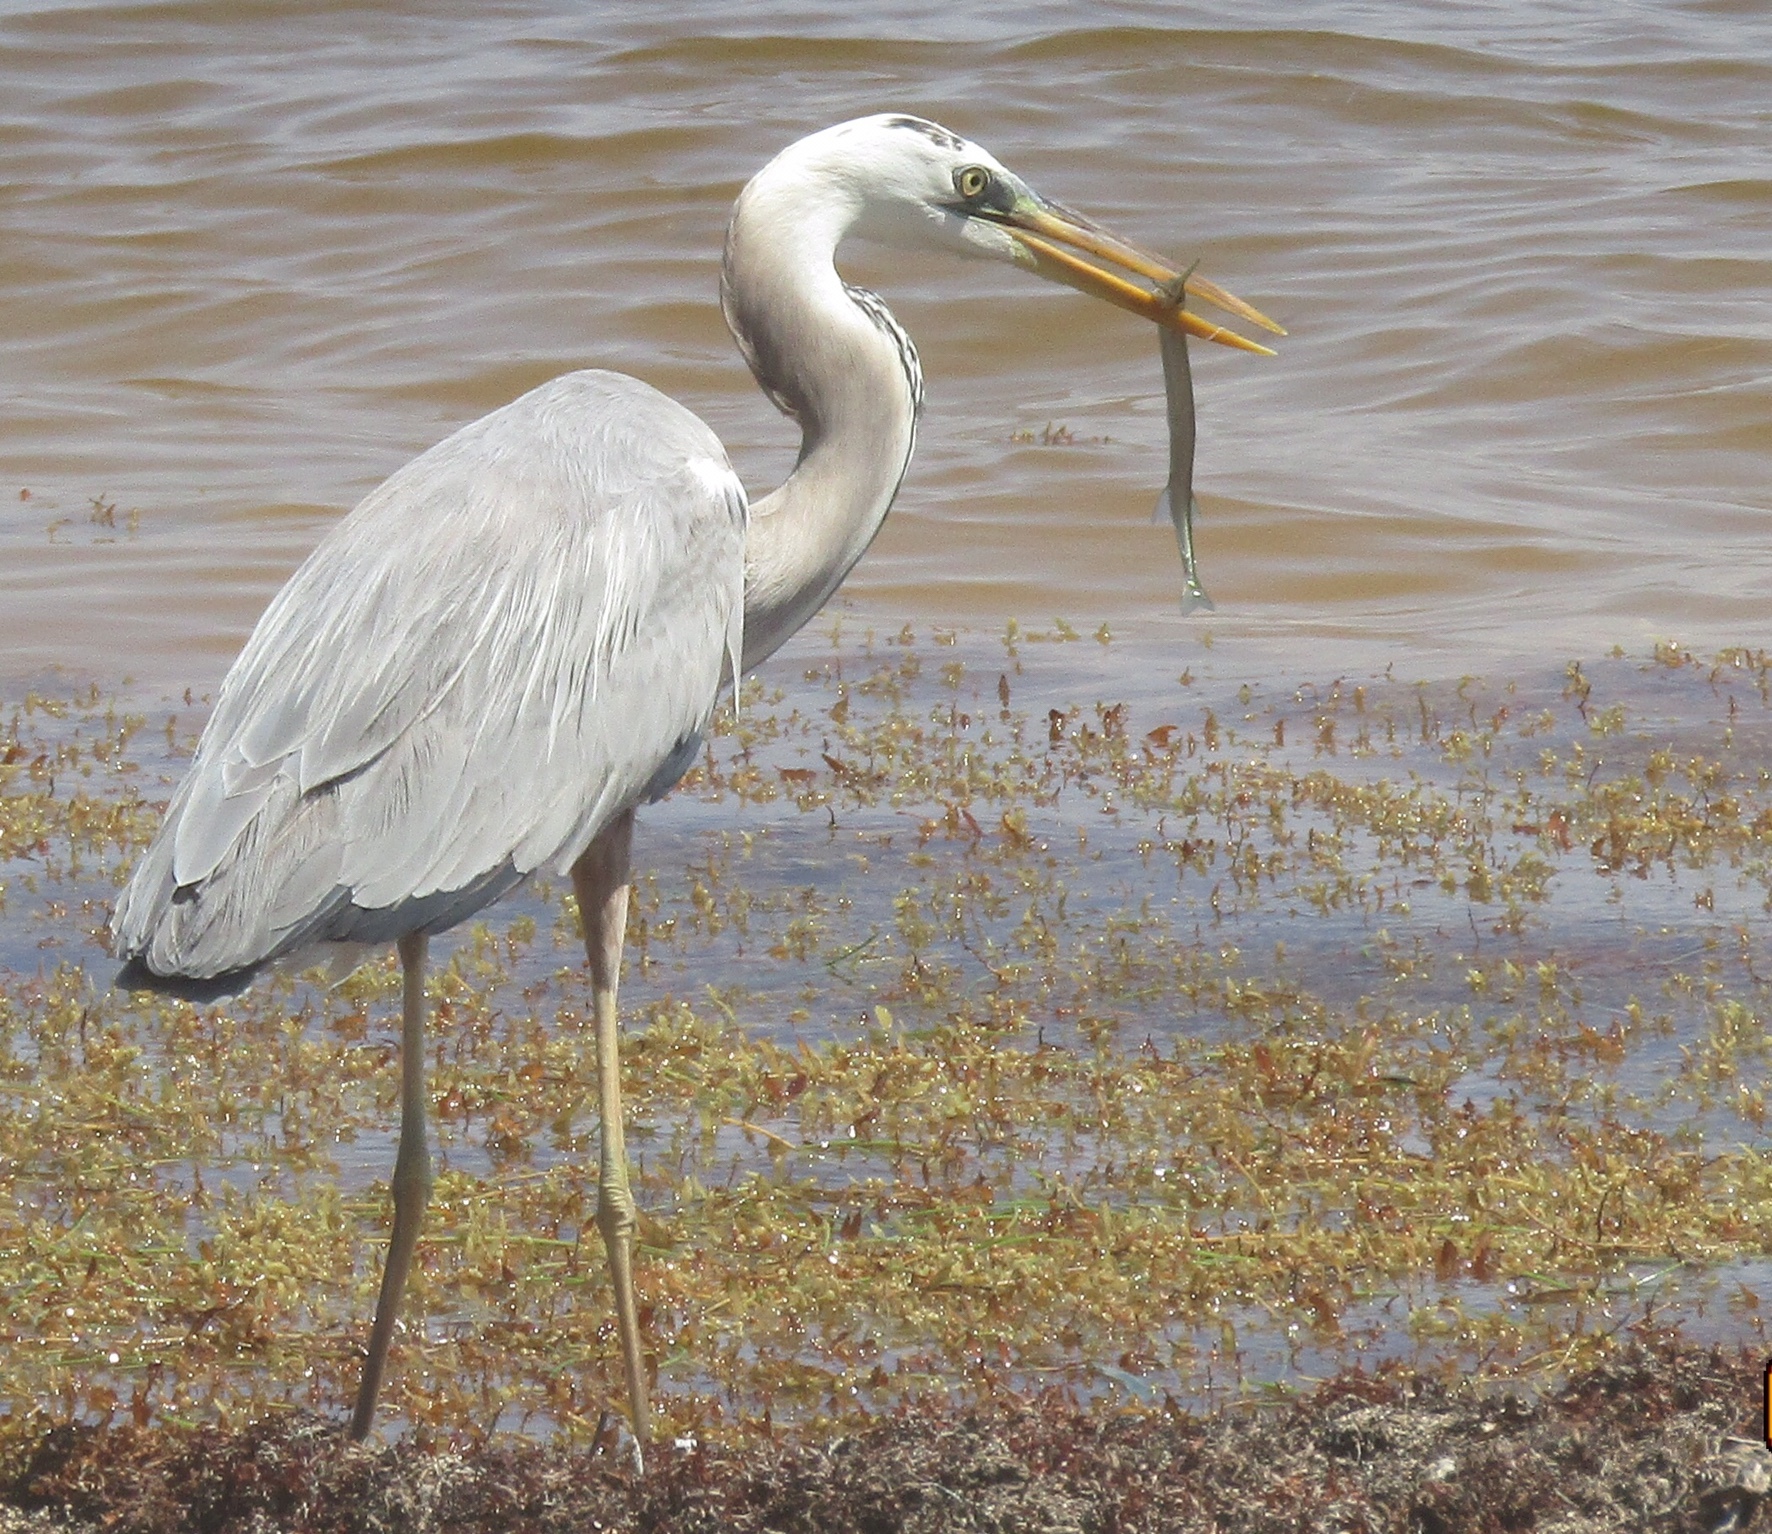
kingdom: Animalia
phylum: Chordata
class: Aves
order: Pelecaniformes
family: Ardeidae
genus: Ardea
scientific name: Ardea
